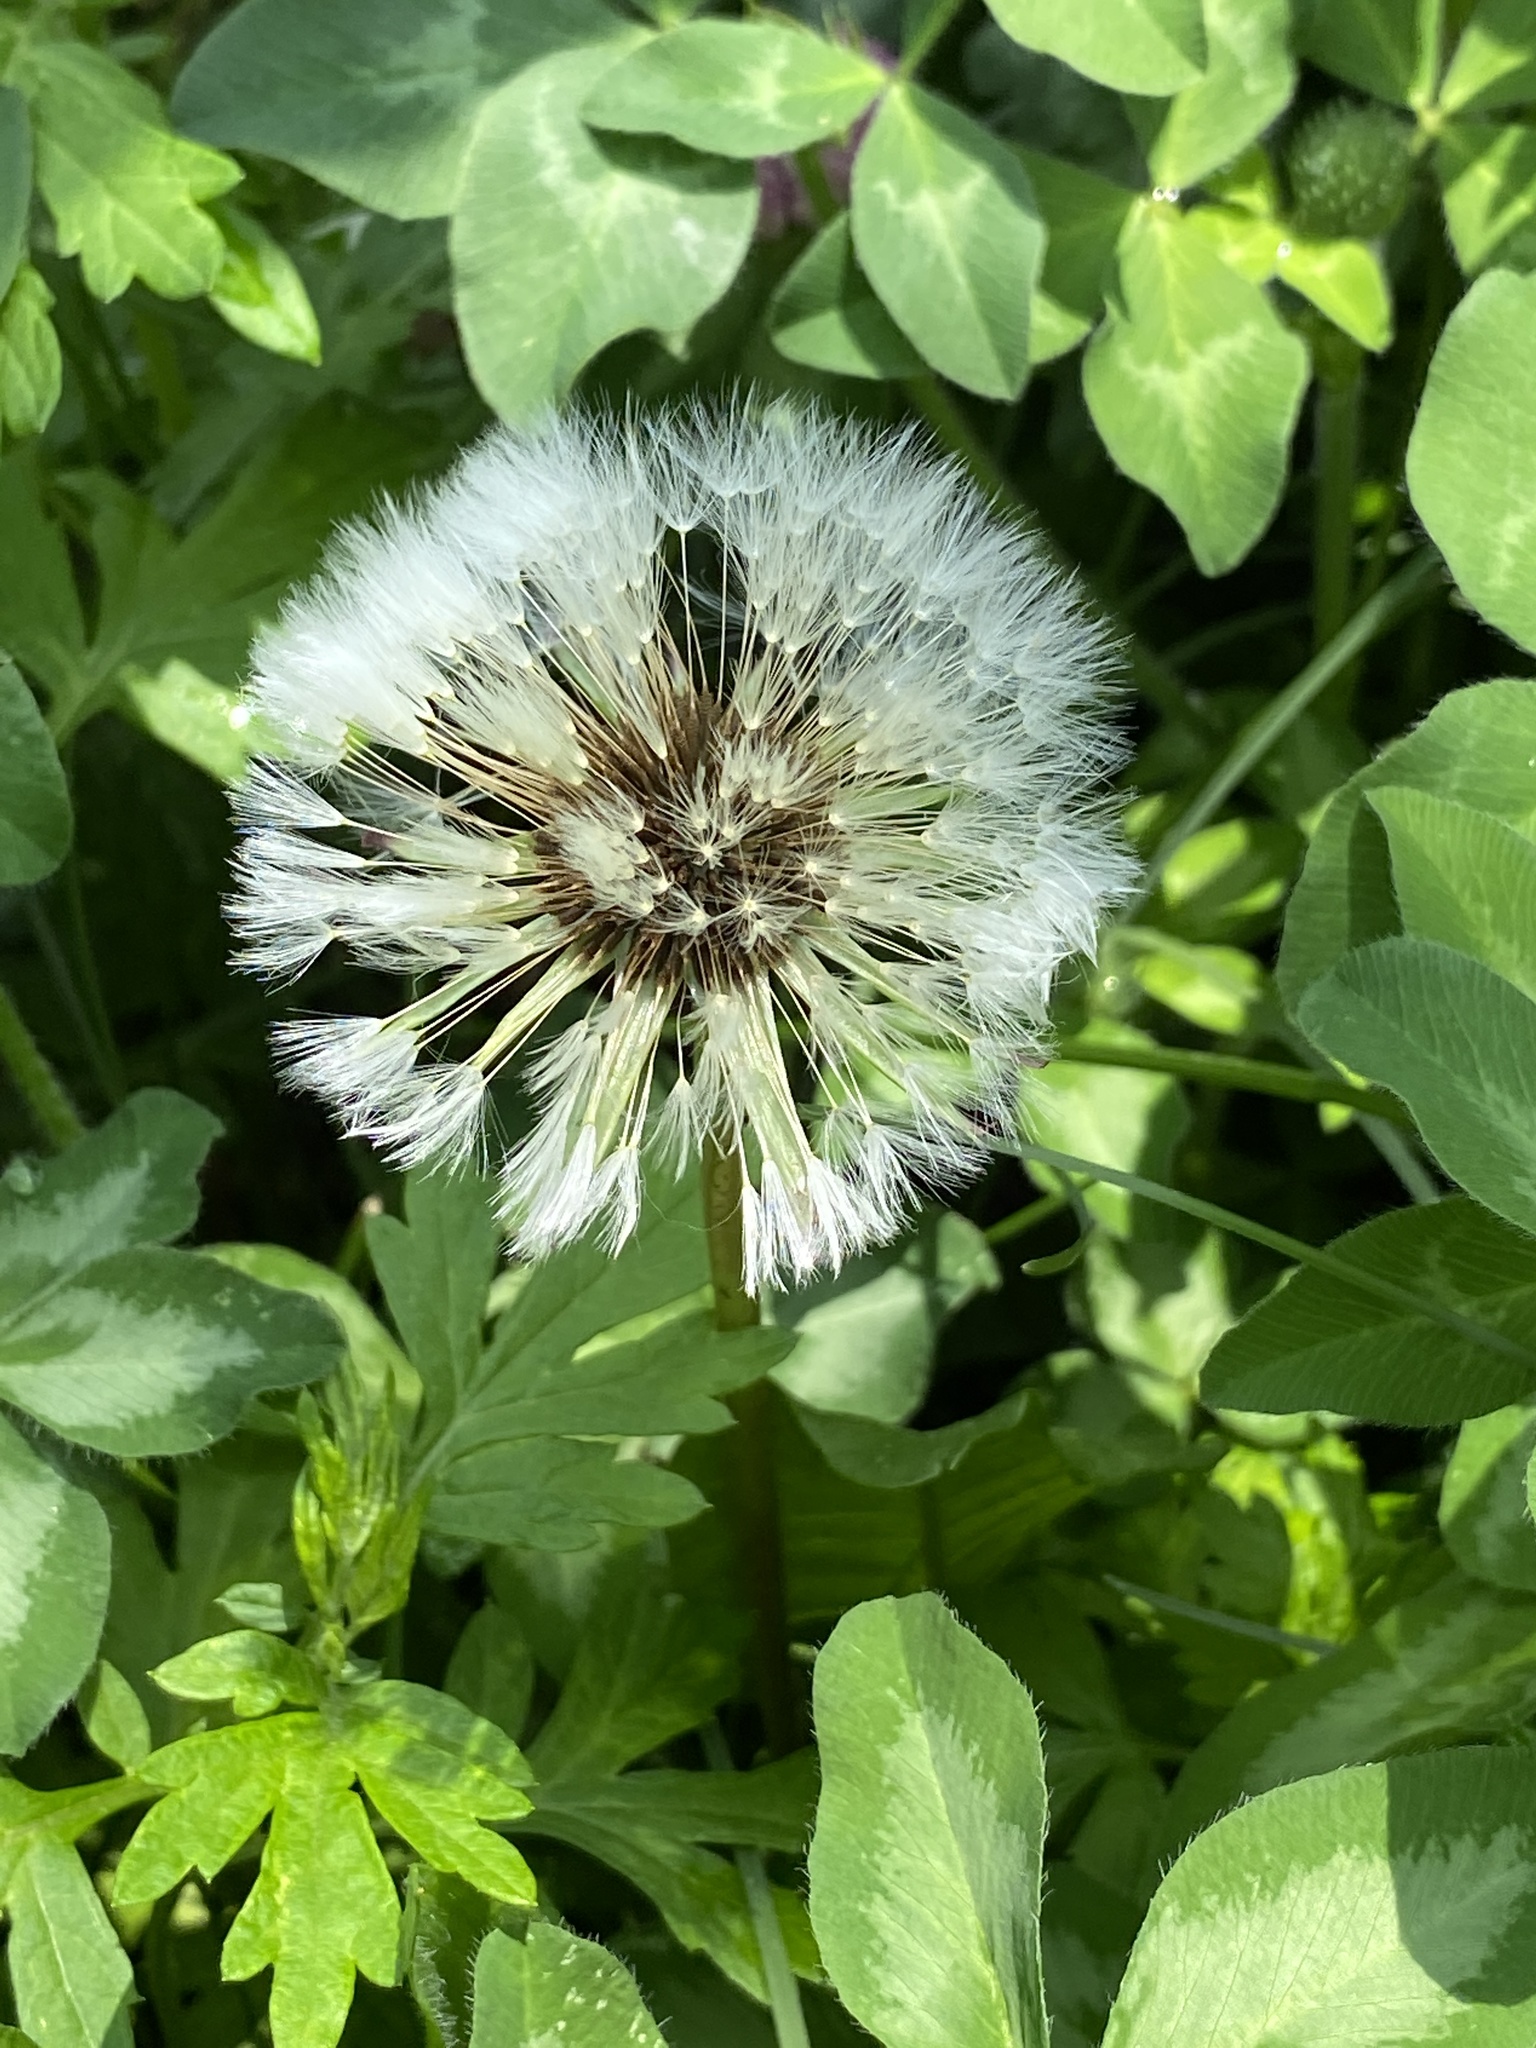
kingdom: Plantae
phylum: Tracheophyta
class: Magnoliopsida
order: Asterales
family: Asteraceae
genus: Taraxacum
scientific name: Taraxacum officinale
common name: Common dandelion
